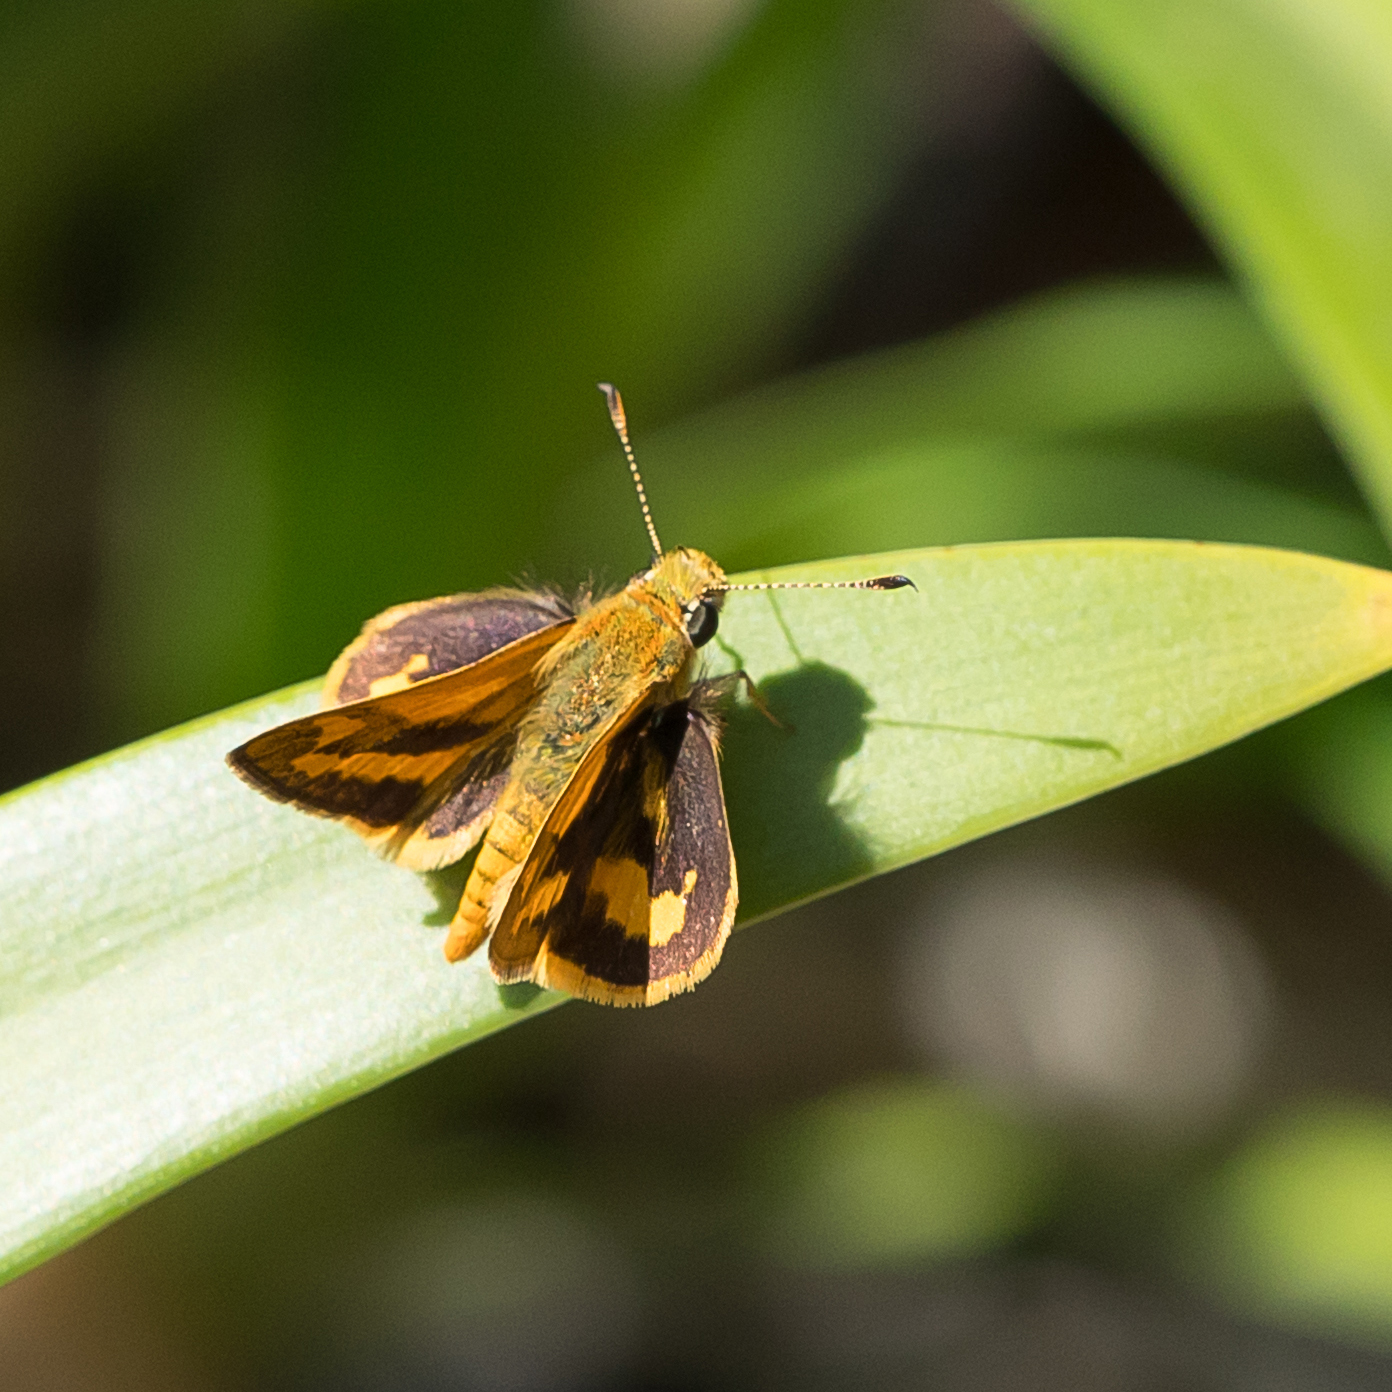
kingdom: Animalia
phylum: Arthropoda
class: Insecta
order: Lepidoptera
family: Hesperiidae
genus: Ocybadistes
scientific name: Ocybadistes walkeri
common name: Yellow-banded dart
